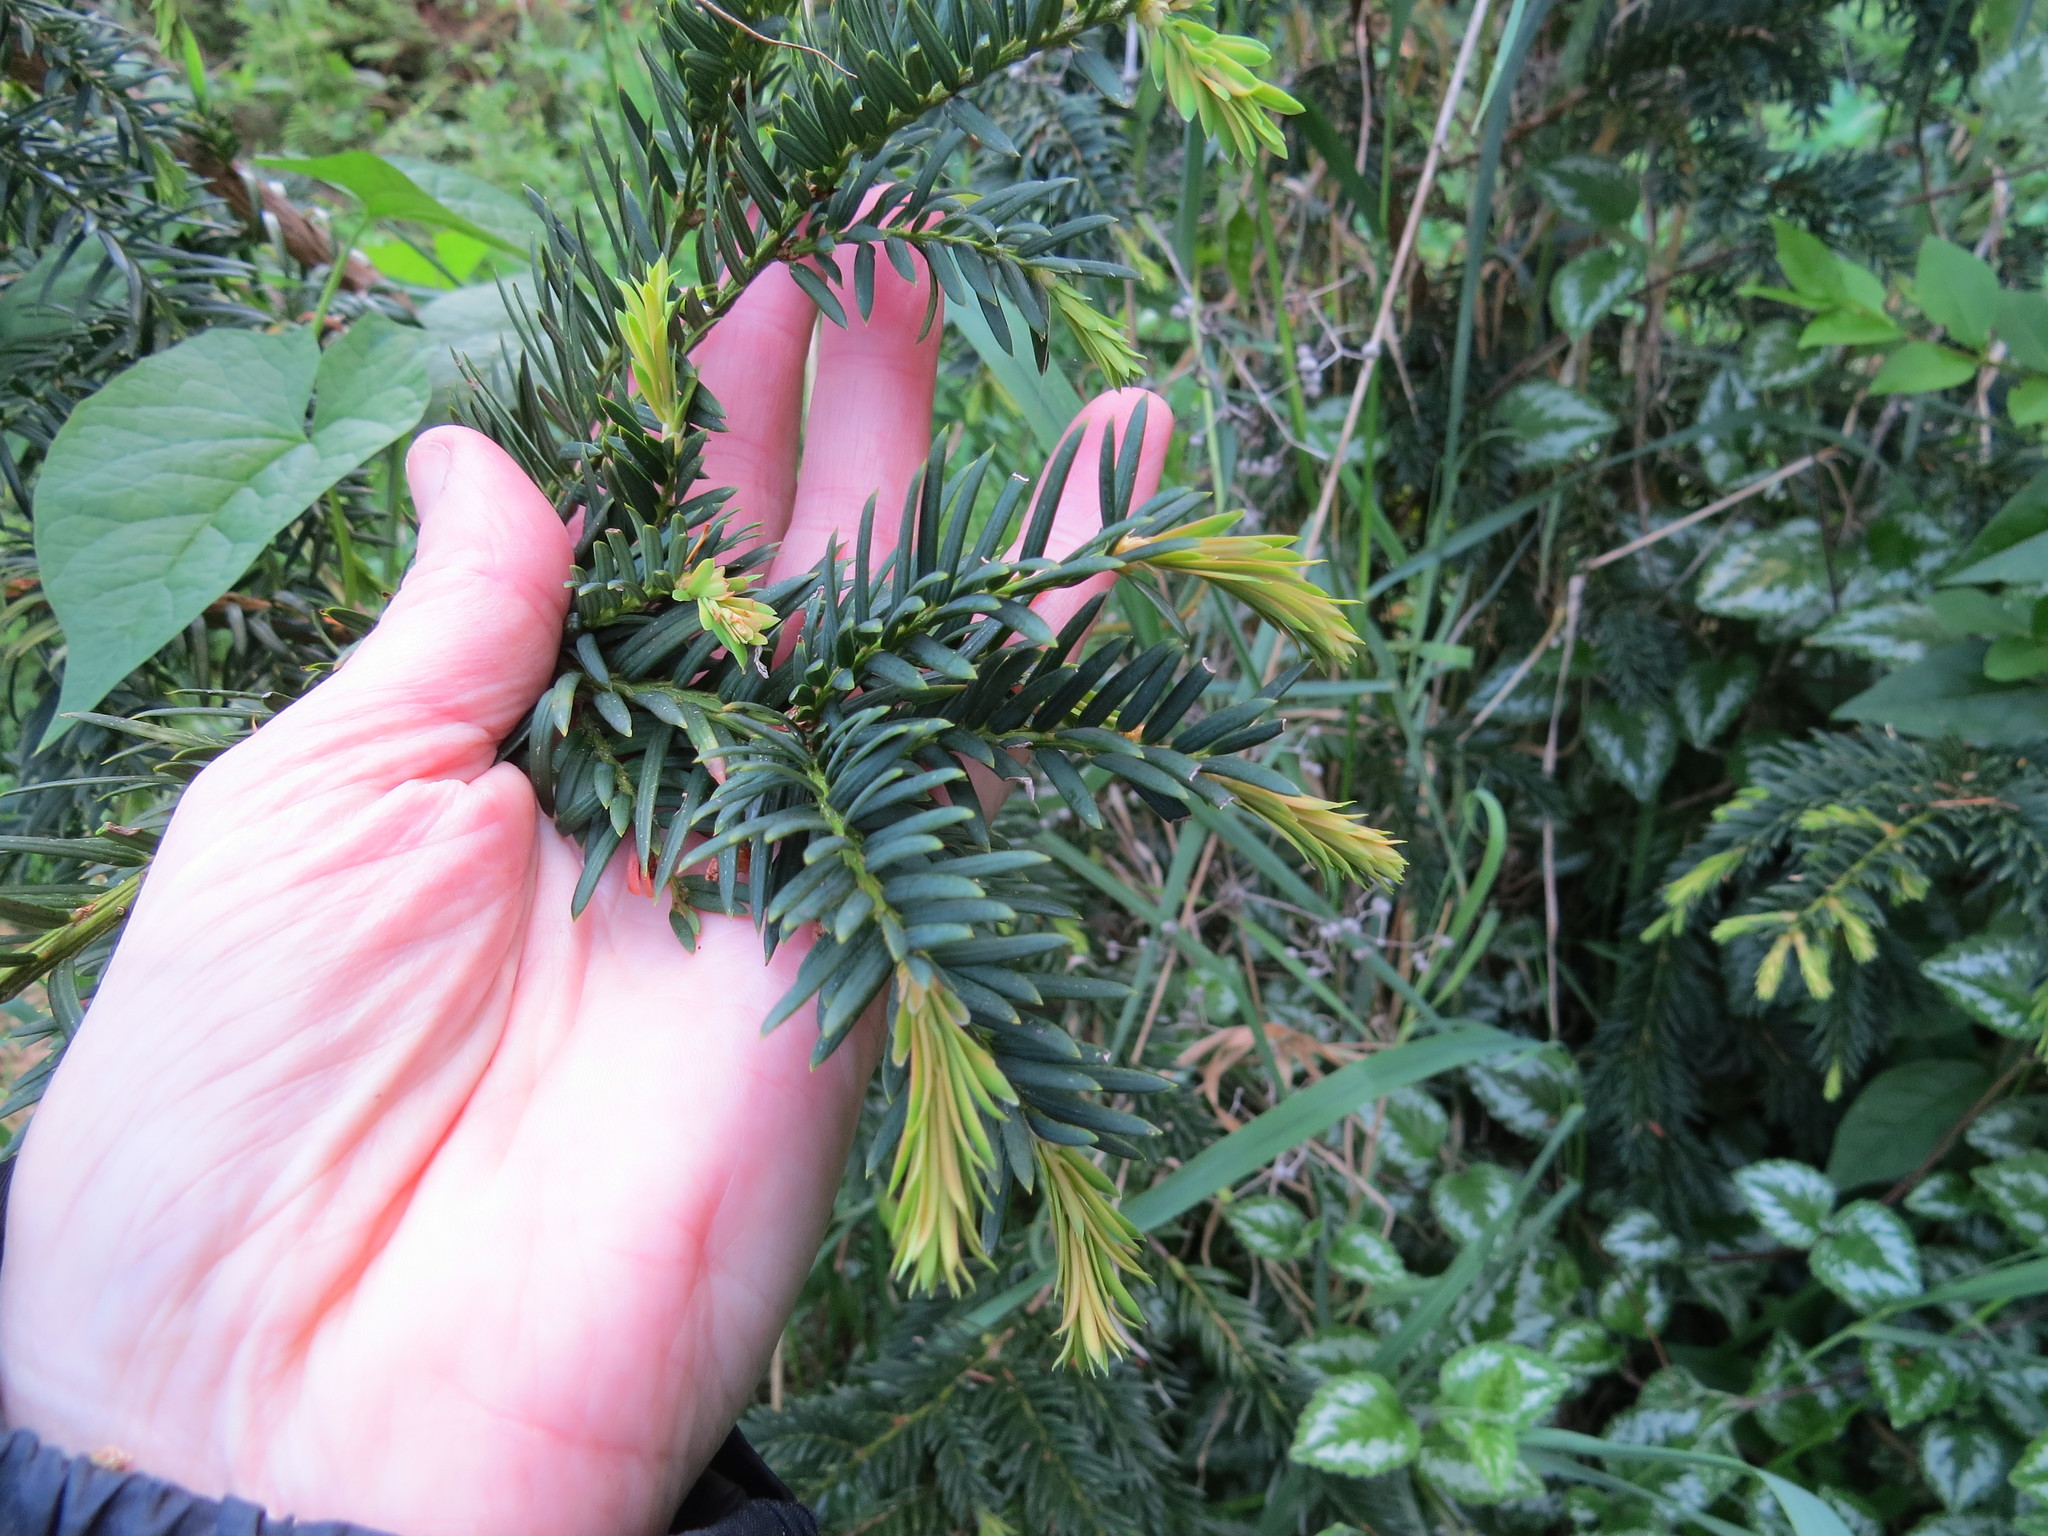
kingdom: Plantae
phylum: Tracheophyta
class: Pinopsida
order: Pinales
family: Taxaceae
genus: Taxus
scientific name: Taxus baccata
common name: Yew
